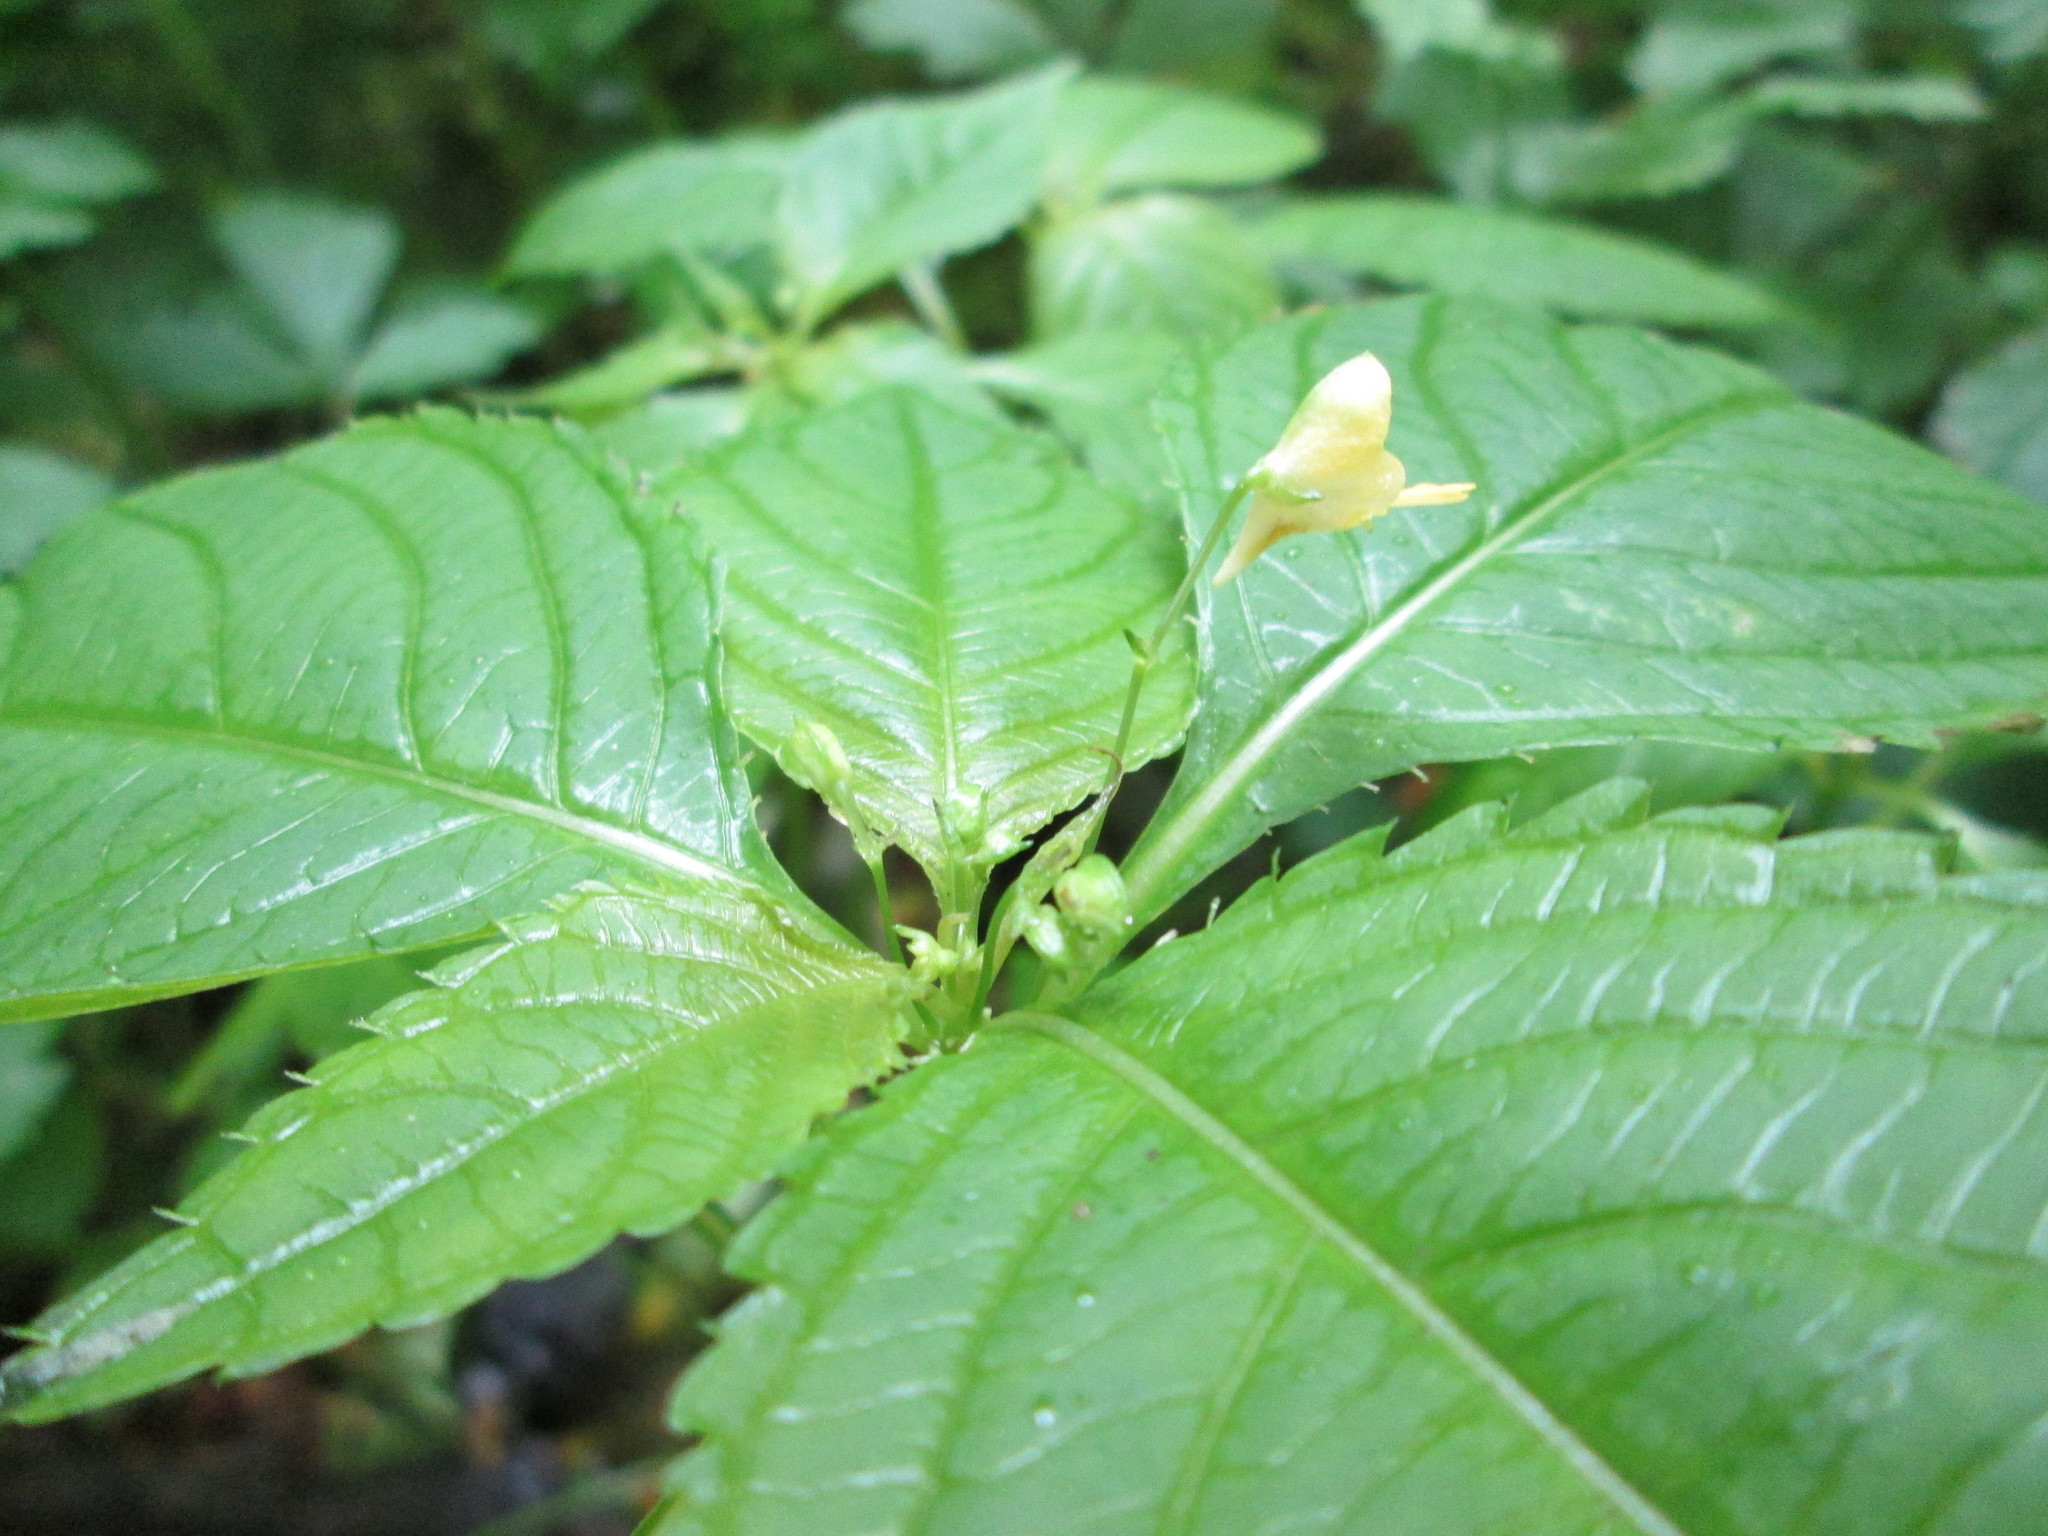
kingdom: Plantae
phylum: Tracheophyta
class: Magnoliopsida
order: Ericales
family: Balsaminaceae
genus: Impatiens
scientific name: Impatiens parviflora
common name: Small balsam
